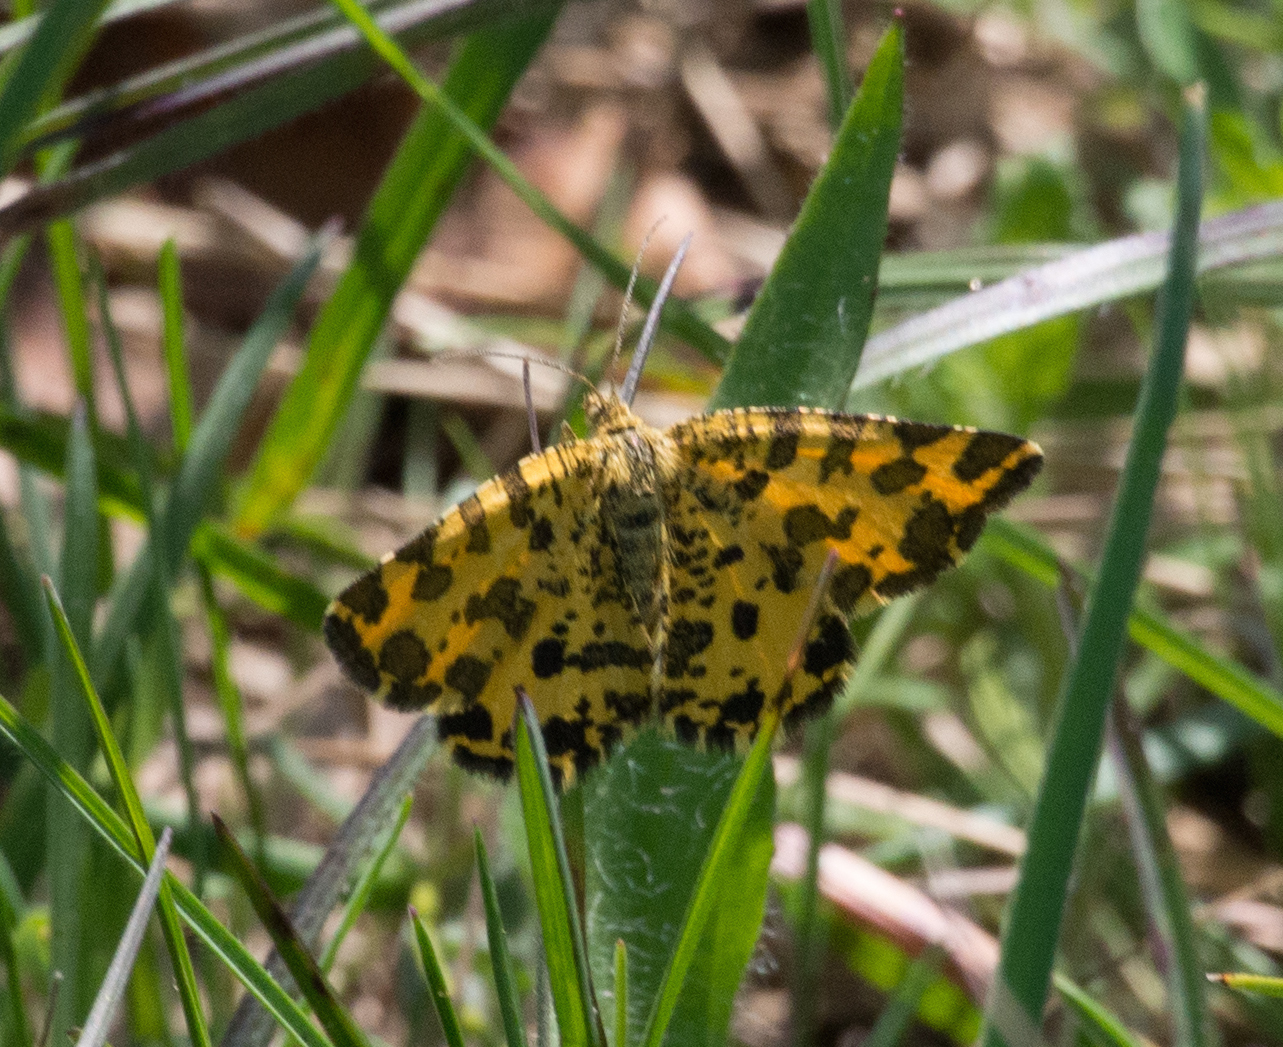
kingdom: Animalia
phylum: Arthropoda
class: Insecta
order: Lepidoptera
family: Geometridae
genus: Pseudopanthera
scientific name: Pseudopanthera macularia
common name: Speckled yellow
